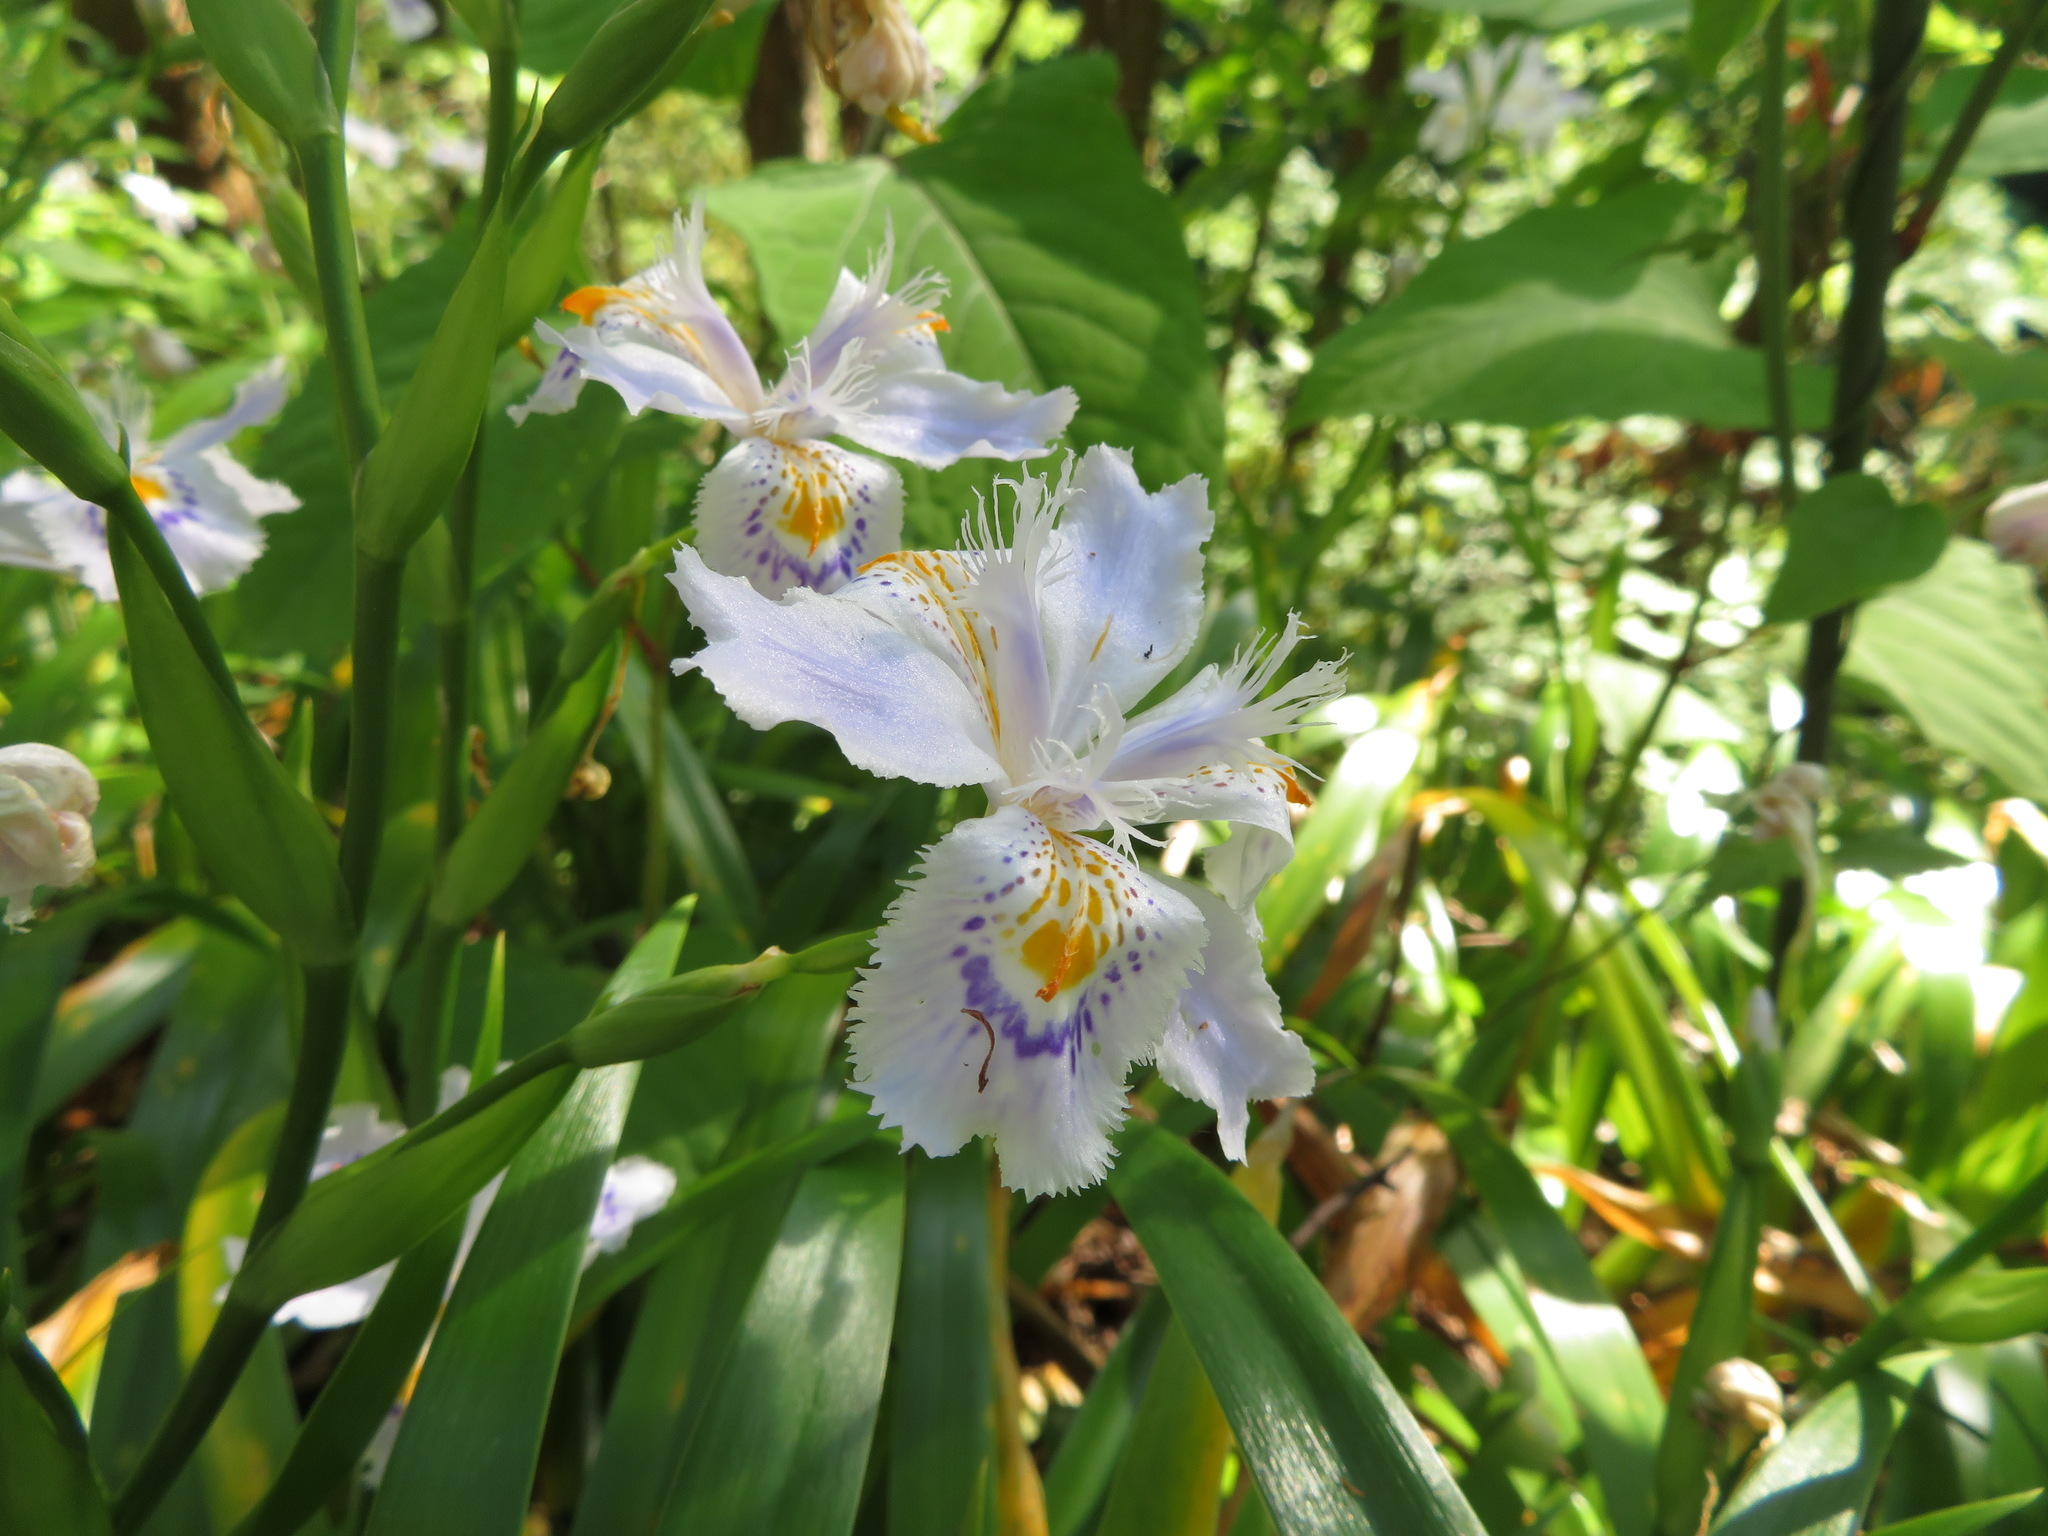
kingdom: Plantae
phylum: Tracheophyta
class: Liliopsida
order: Asparagales
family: Iridaceae
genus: Iris
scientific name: Iris japonica
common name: Butterfly-flower
